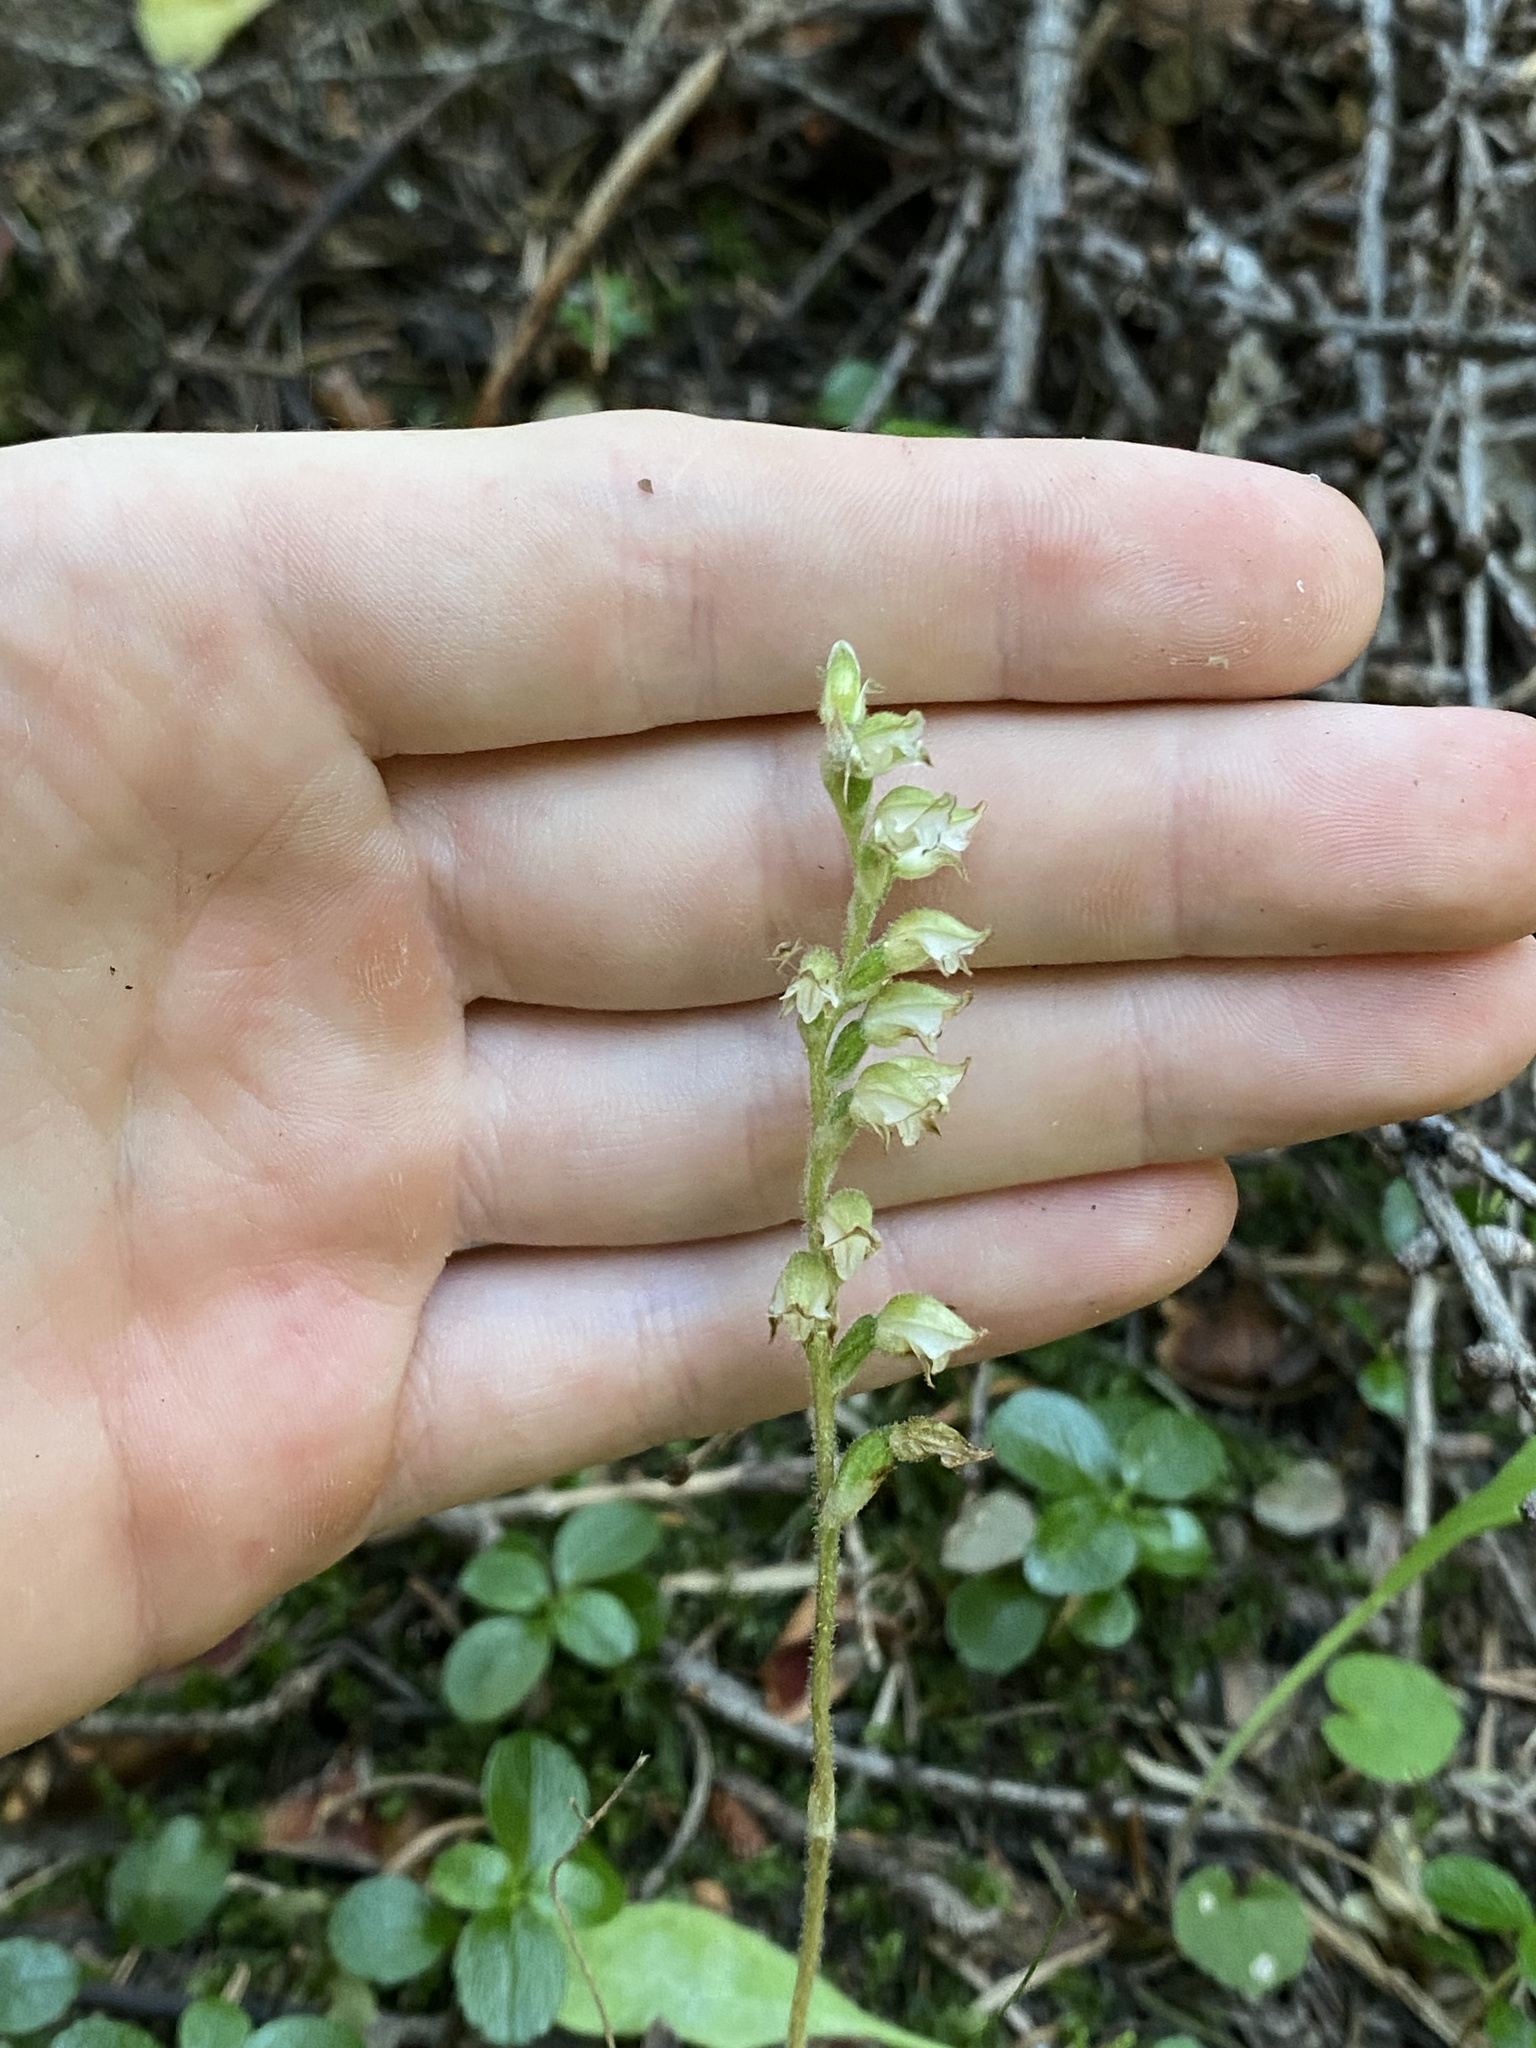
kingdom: Plantae
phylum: Tracheophyta
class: Liliopsida
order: Asparagales
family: Orchidaceae
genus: Goodyera
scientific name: Goodyera oblongifolia
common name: Giant rattlesnake-plantain
